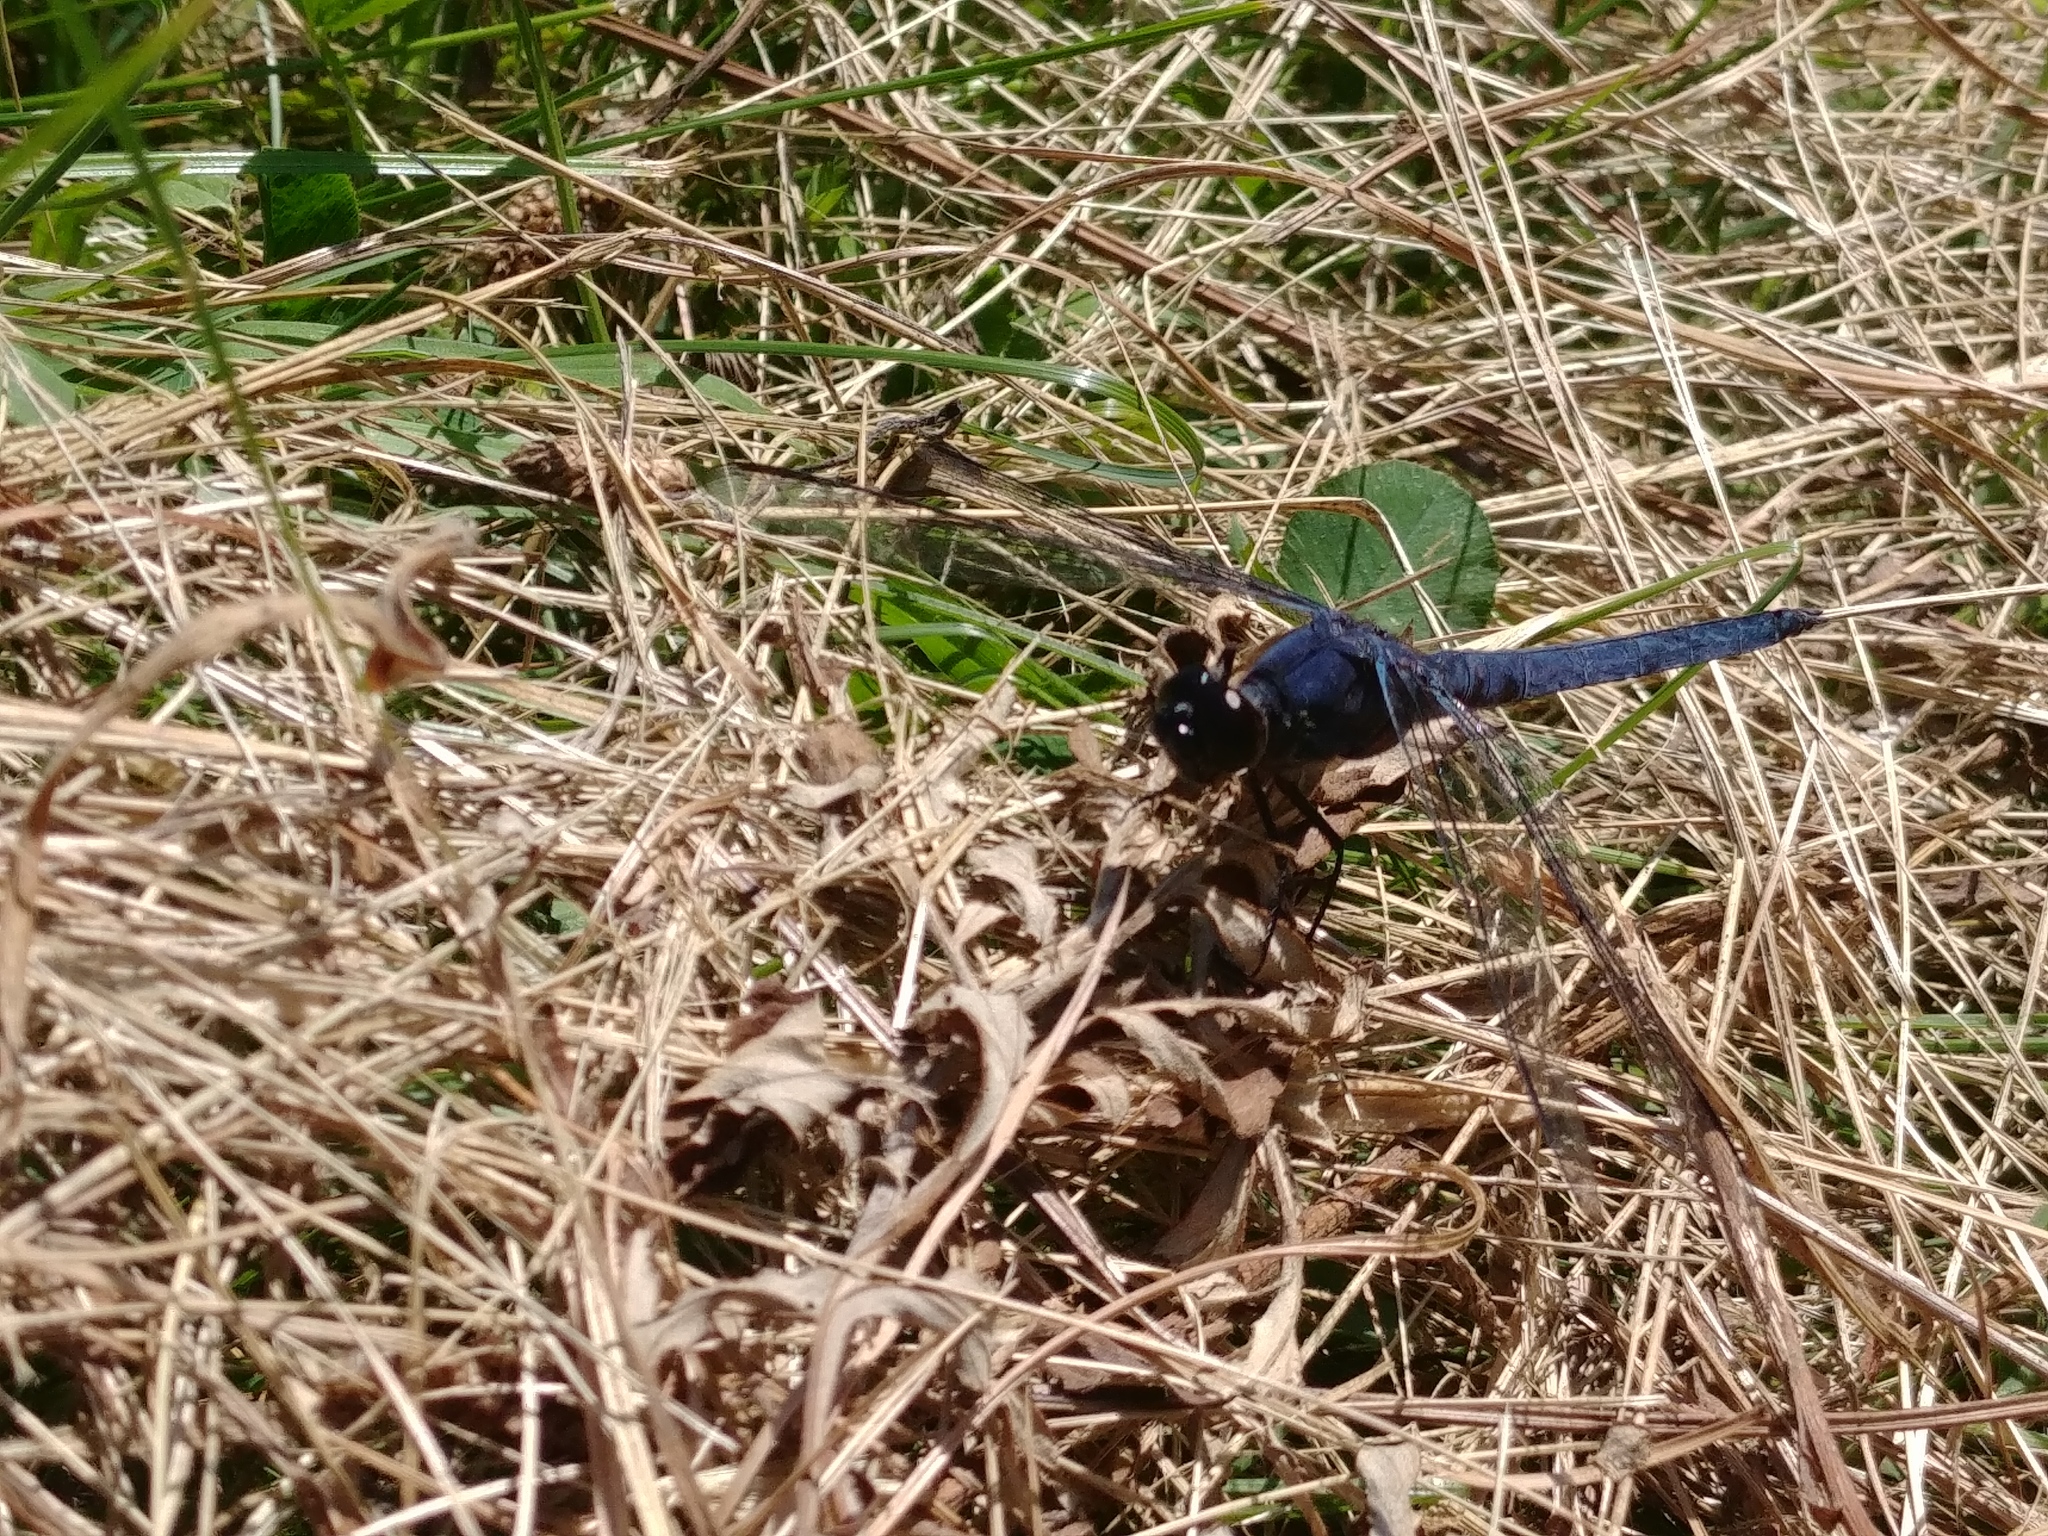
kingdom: Animalia
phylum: Arthropoda
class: Insecta
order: Odonata
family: Libellulidae
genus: Libellula
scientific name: Libellula incesta
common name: Slaty skimmer
